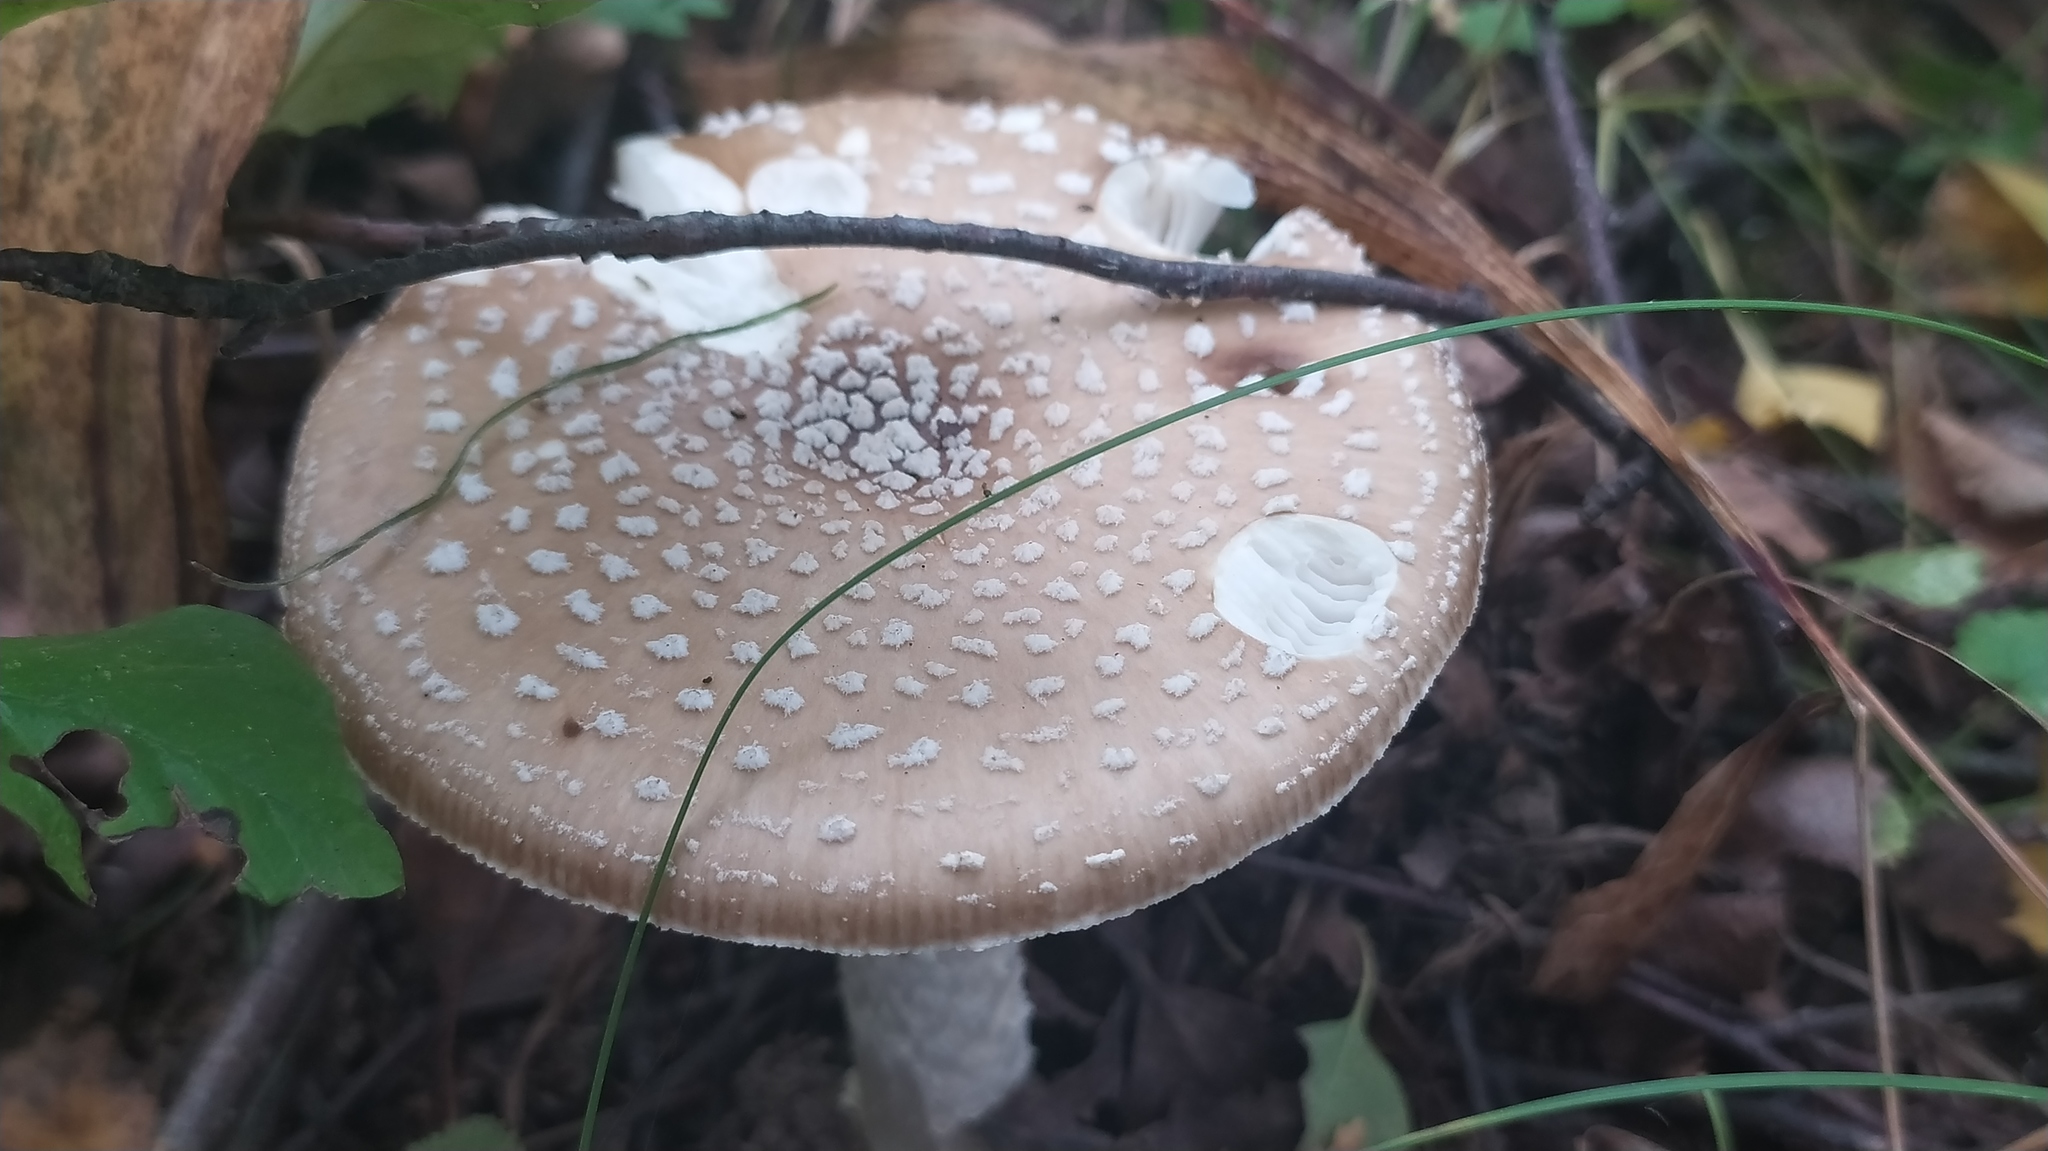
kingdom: Fungi
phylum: Basidiomycota
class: Agaricomycetes
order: Agaricales
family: Amanitaceae
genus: Amanita
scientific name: Amanita pantherina
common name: Panthercap
